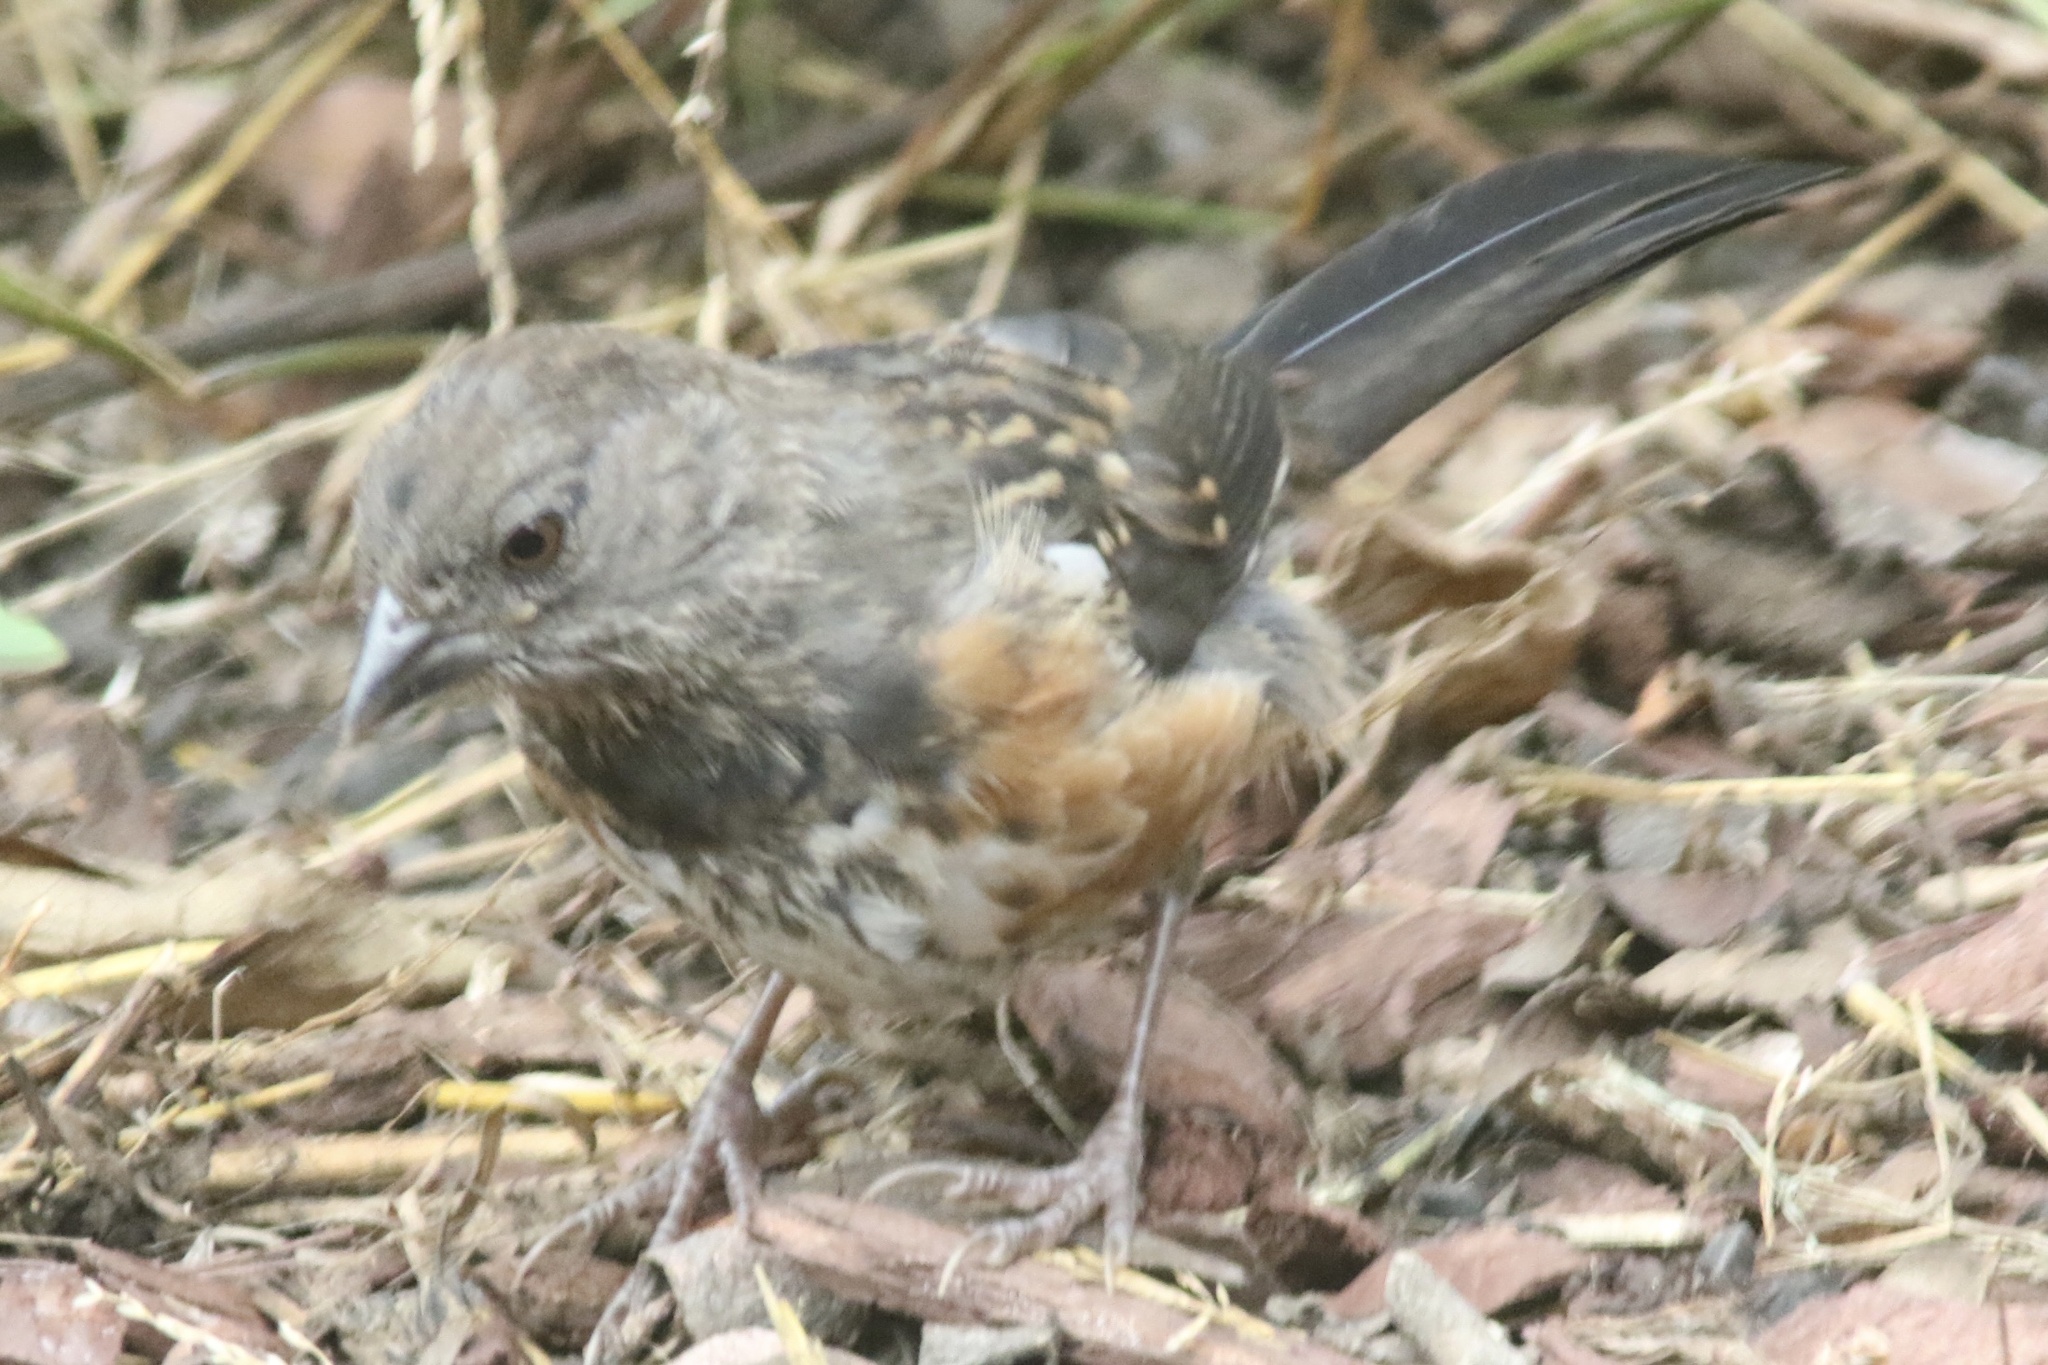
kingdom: Animalia
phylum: Chordata
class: Aves
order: Passeriformes
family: Passerellidae
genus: Pipilo
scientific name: Pipilo maculatus
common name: Spotted towhee
